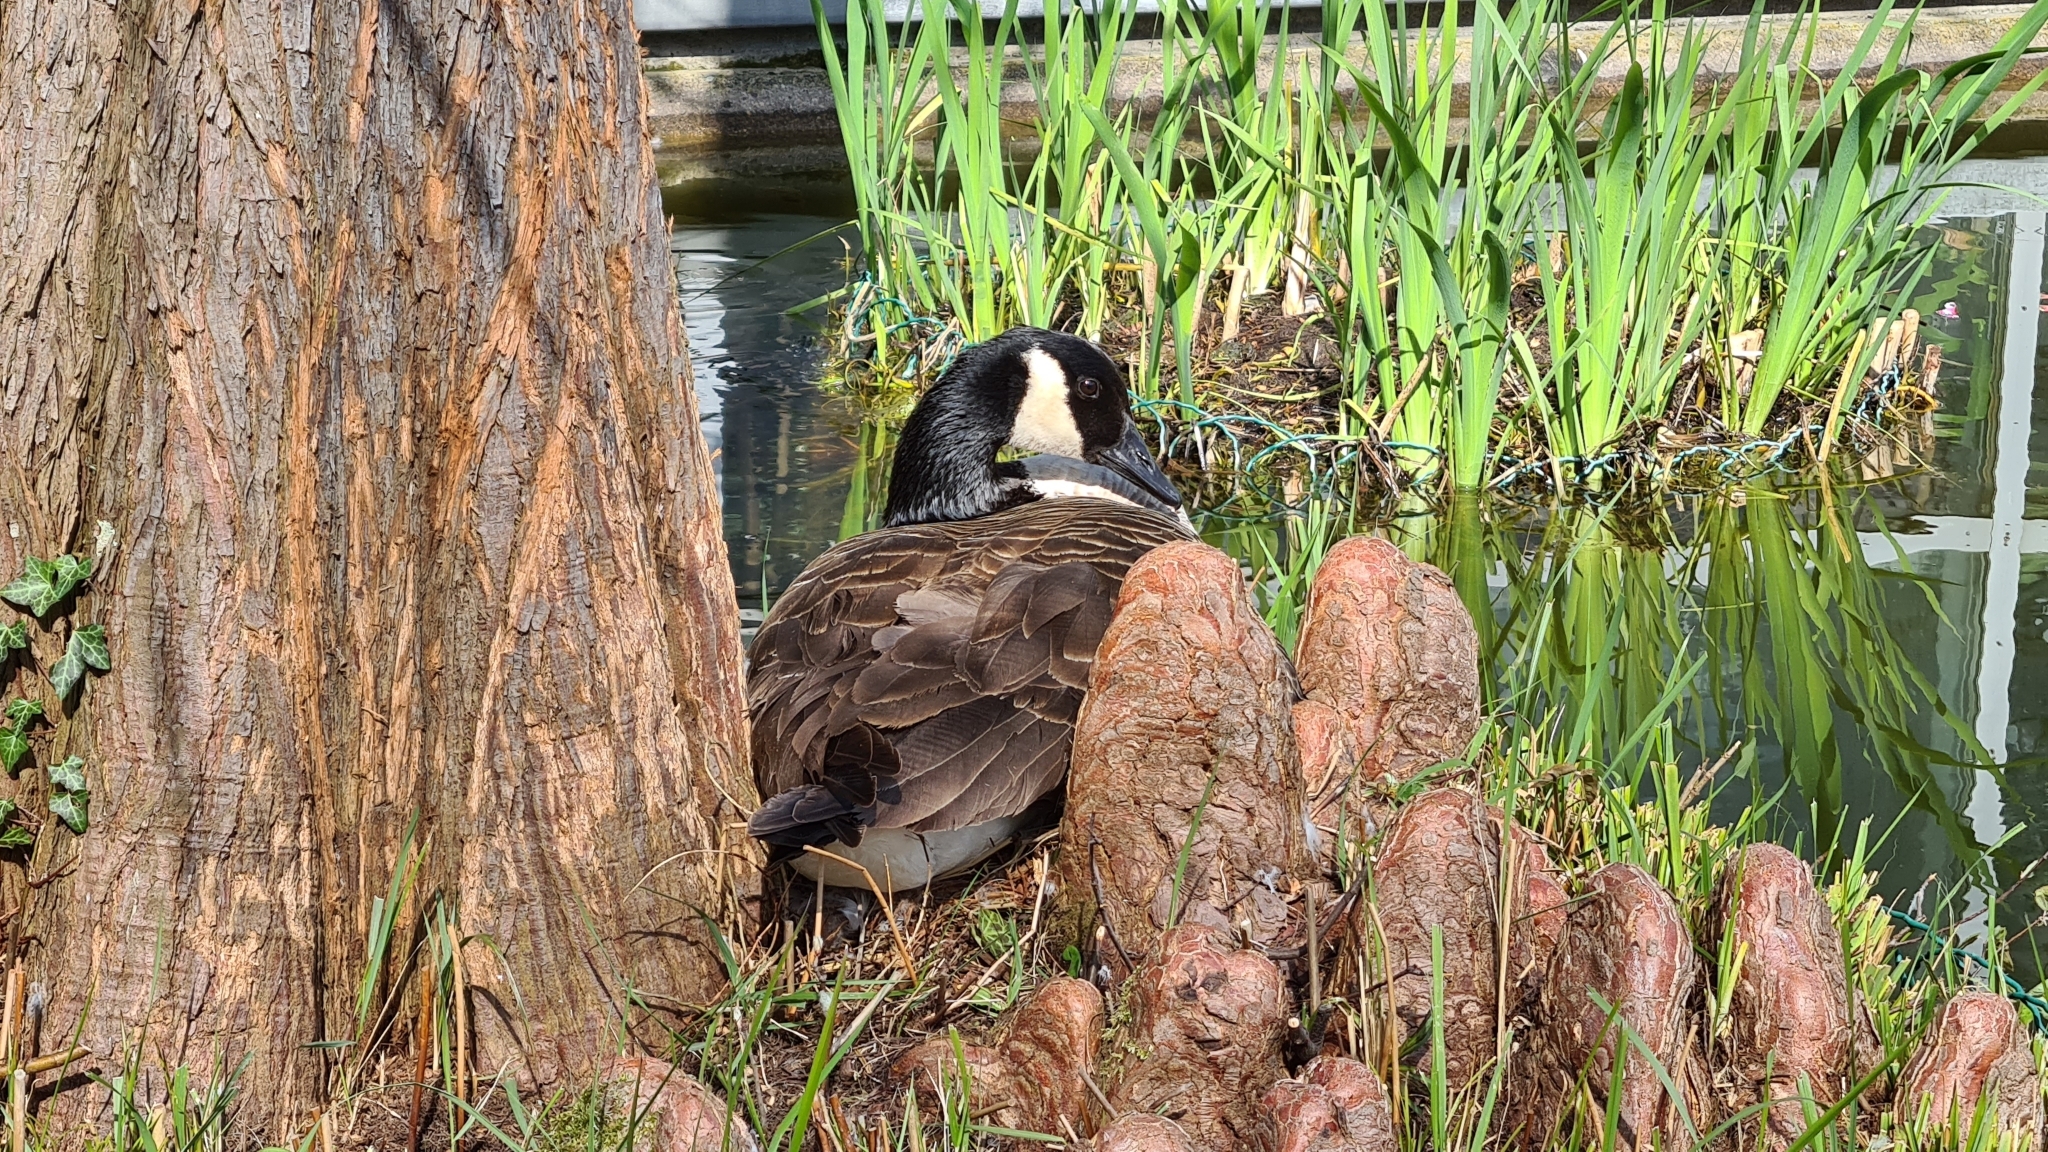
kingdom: Animalia
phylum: Chordata
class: Aves
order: Anseriformes
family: Anatidae
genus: Branta
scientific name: Branta canadensis
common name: Canada goose
